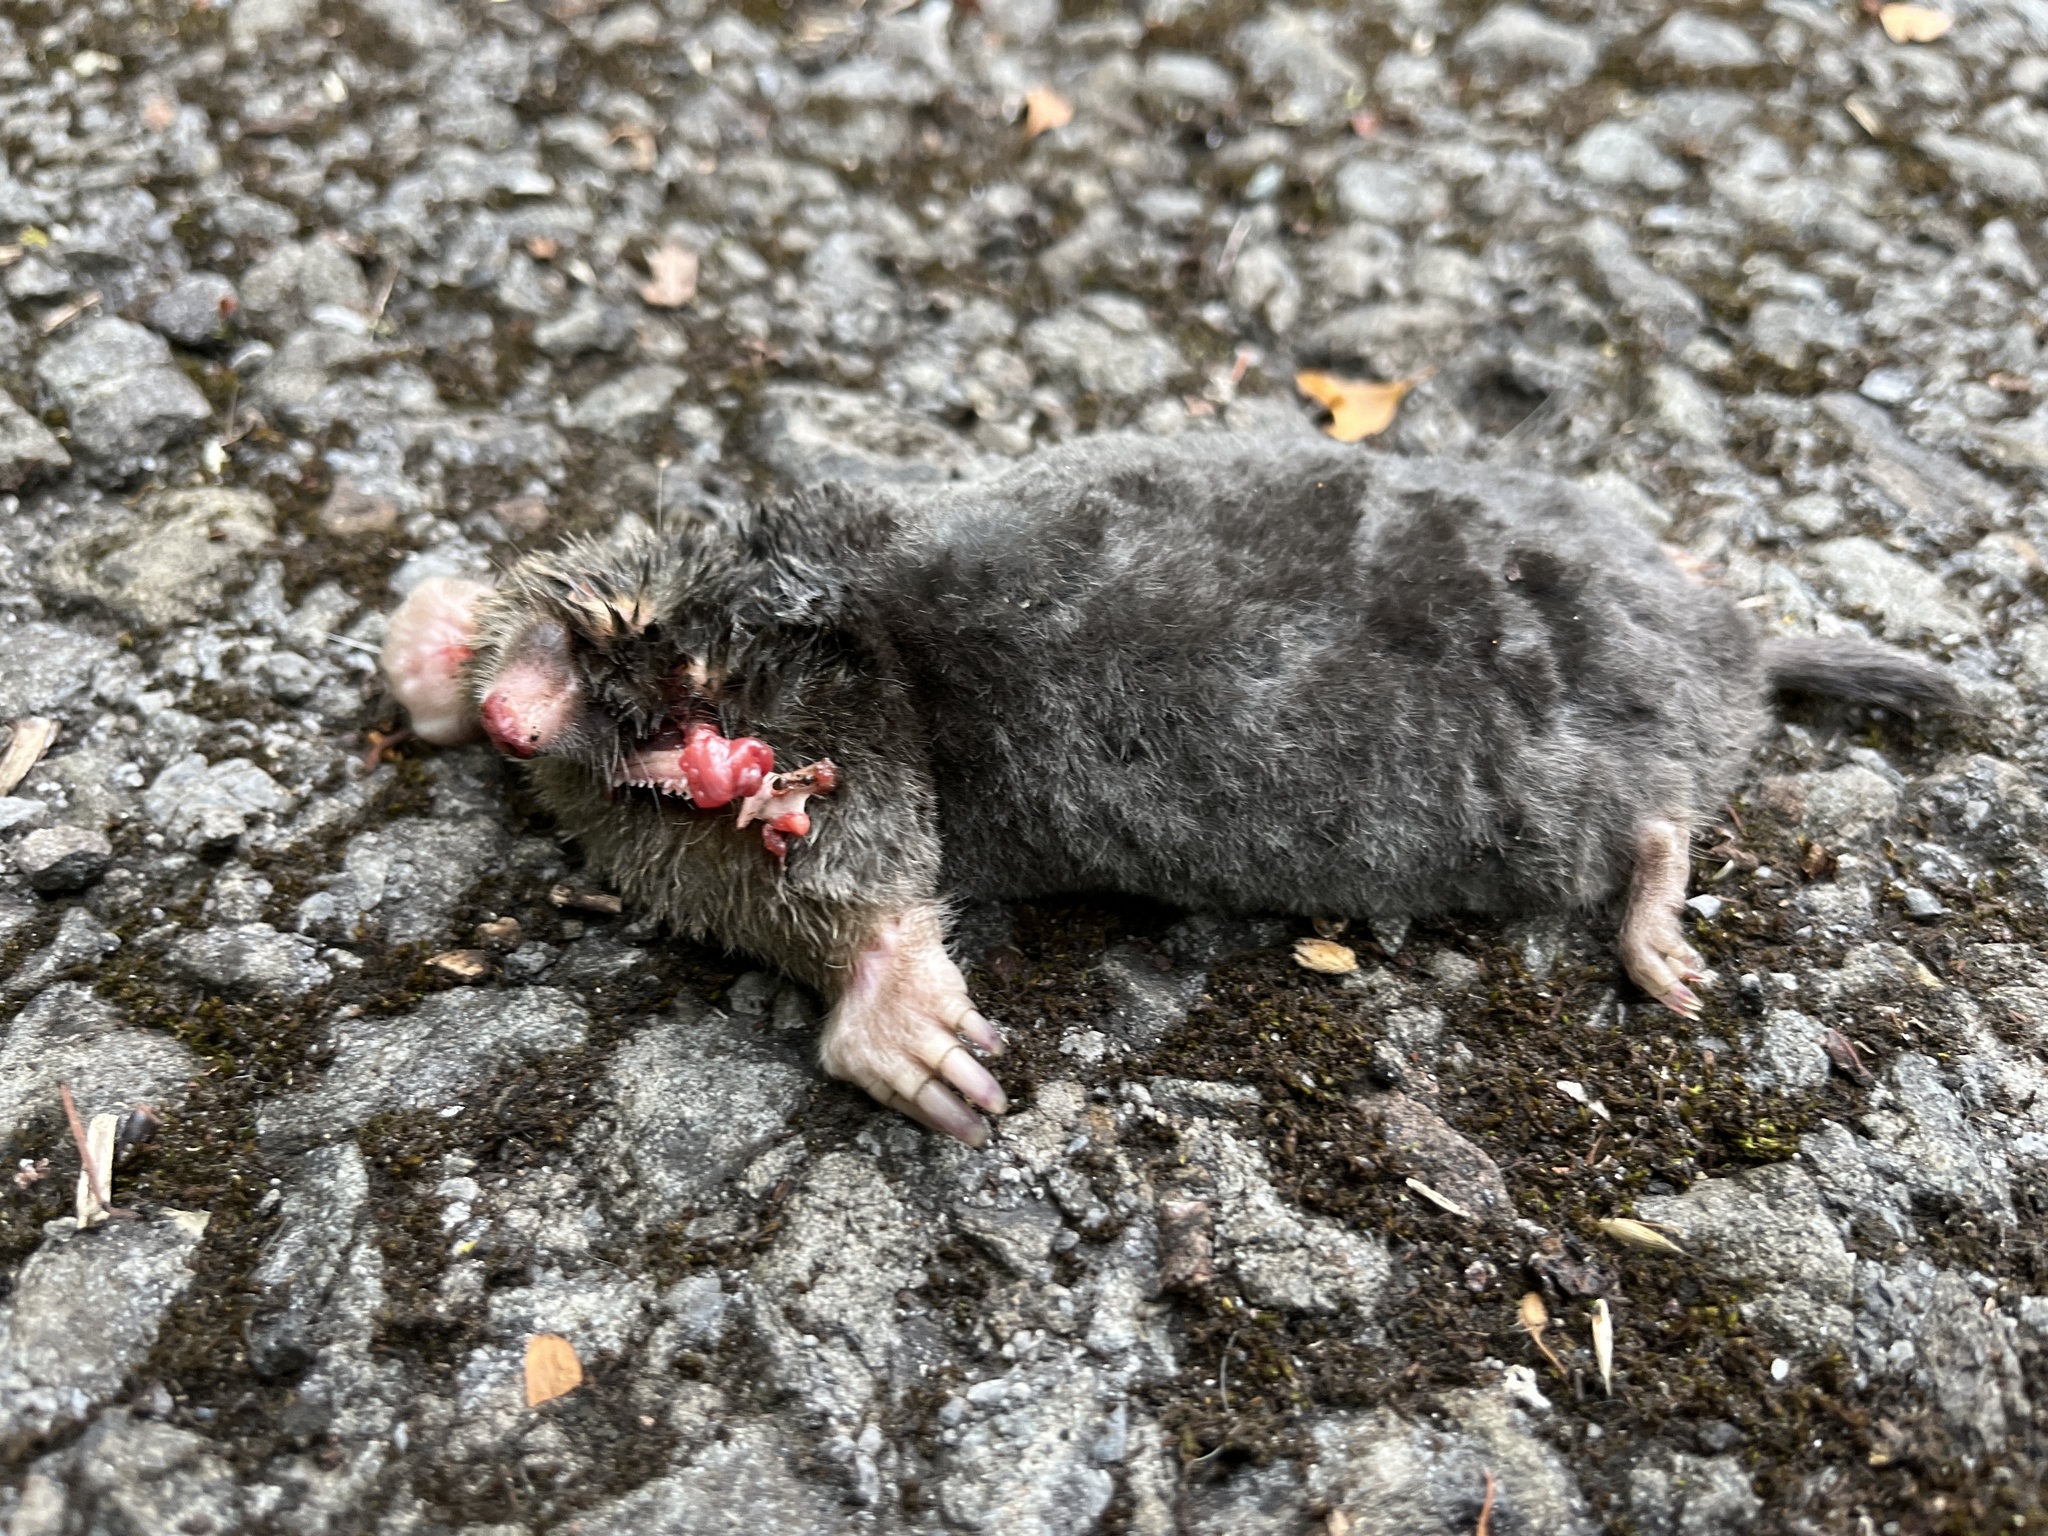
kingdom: Animalia
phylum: Chordata
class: Mammalia
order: Soricomorpha
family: Talpidae
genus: Talpa
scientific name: Talpa europaea
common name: European mole
